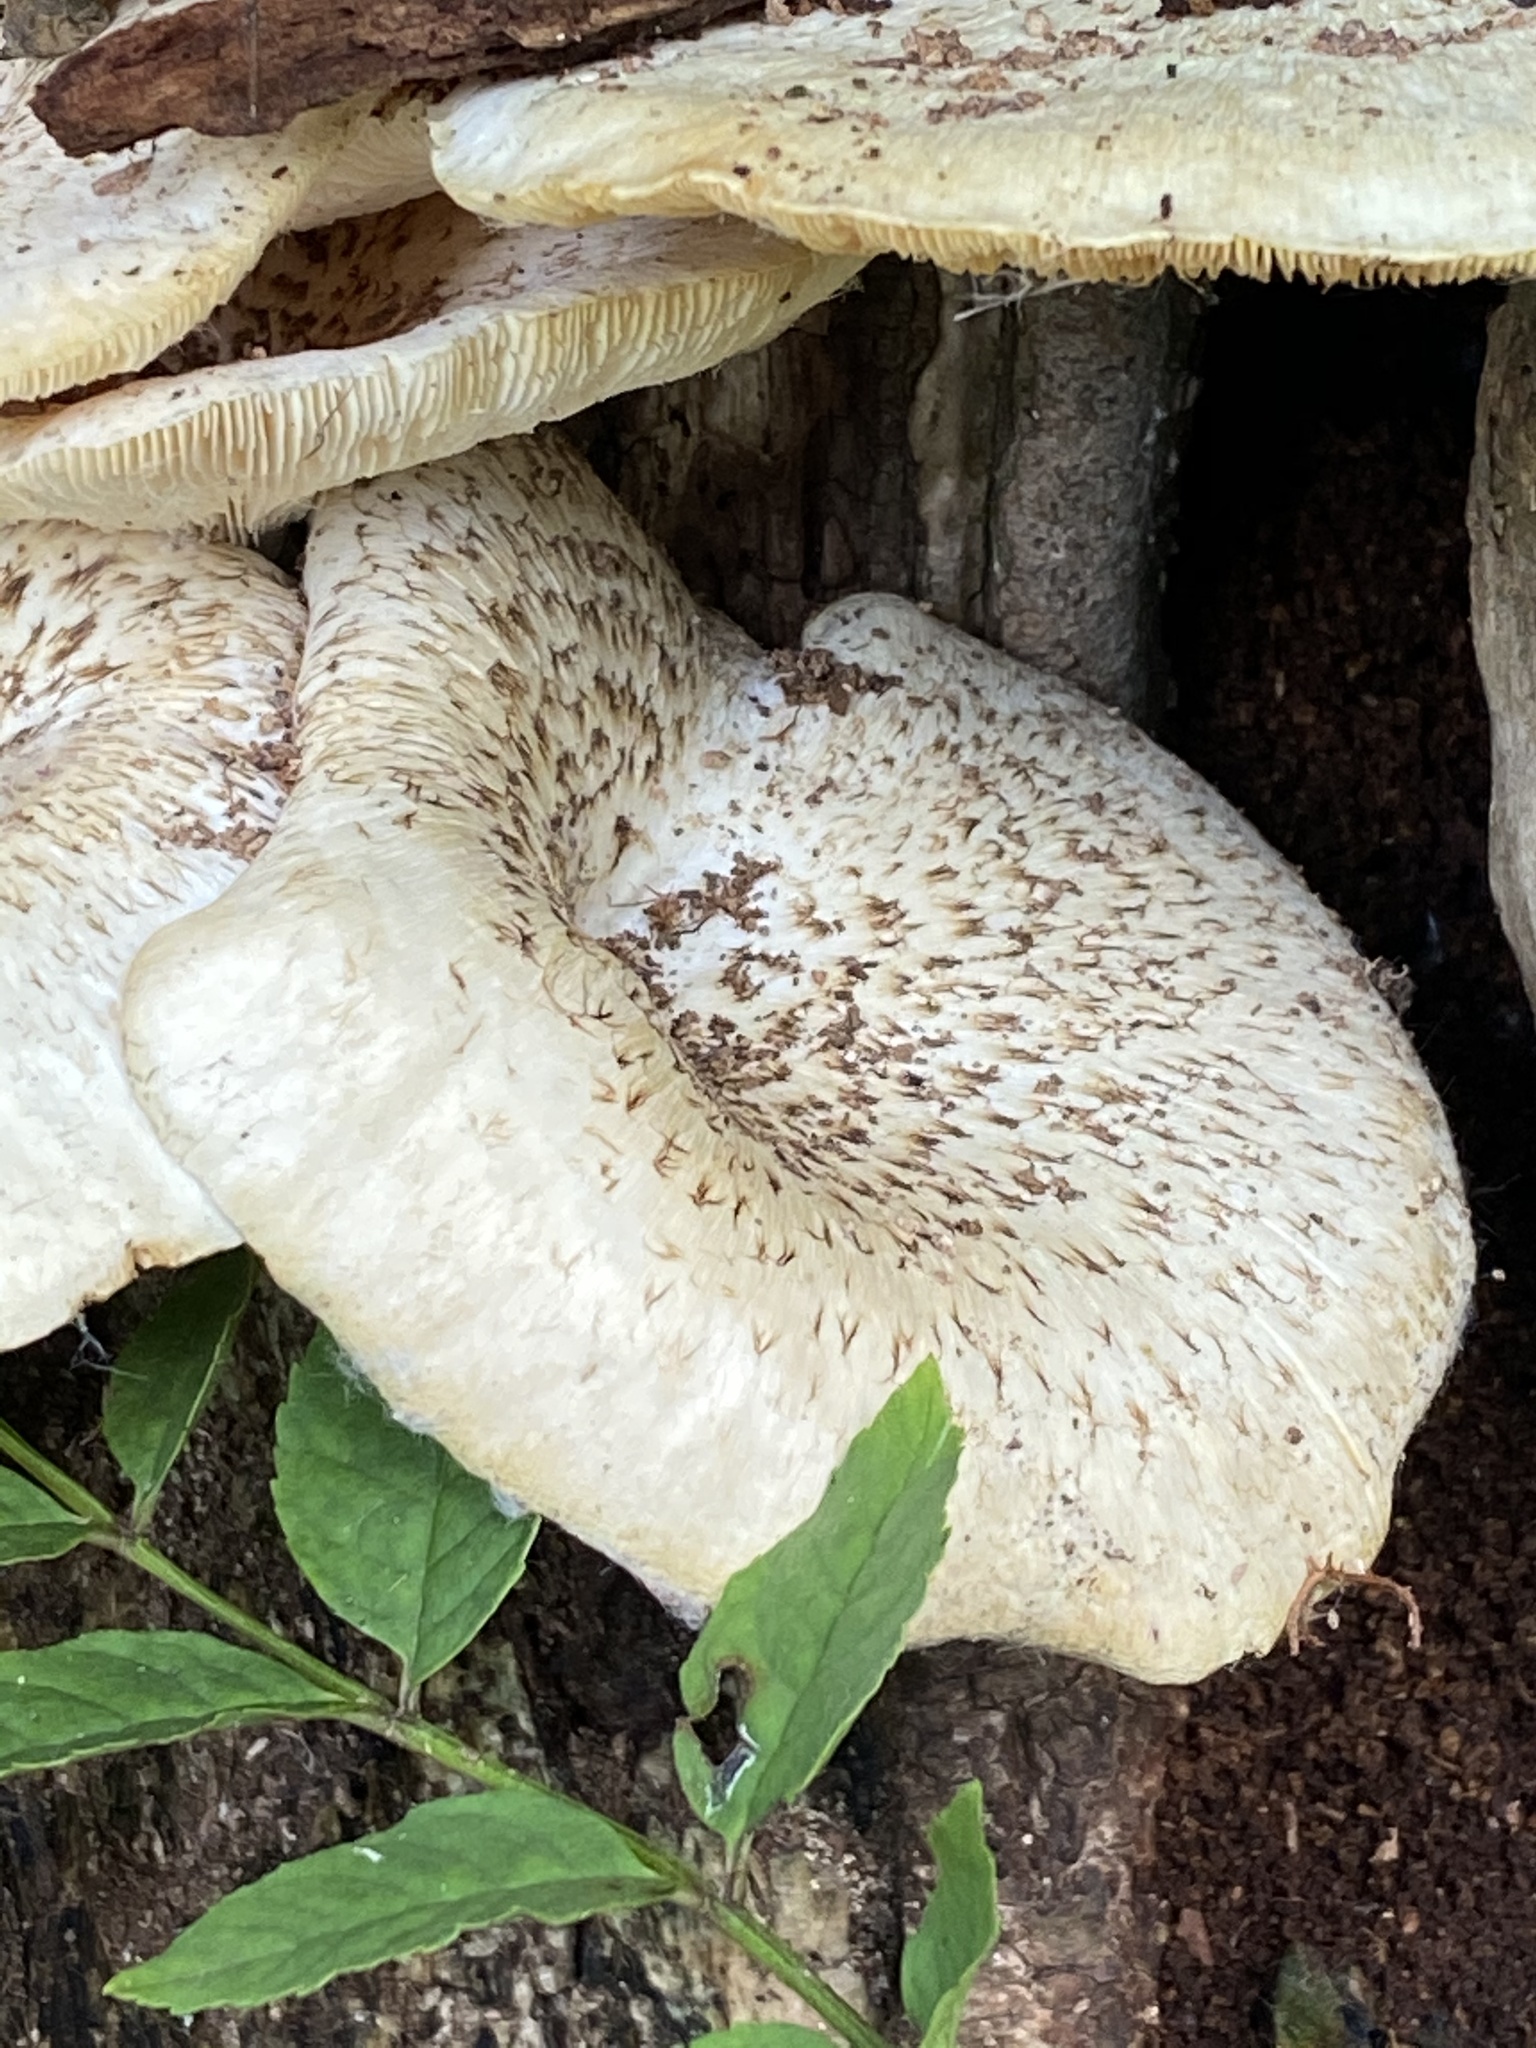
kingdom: Fungi
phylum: Basidiomycota
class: Agaricomycetes
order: Polyporales
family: Polyporaceae
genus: Lentinus
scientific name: Lentinus tigrinus
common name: Tiger sawgill
